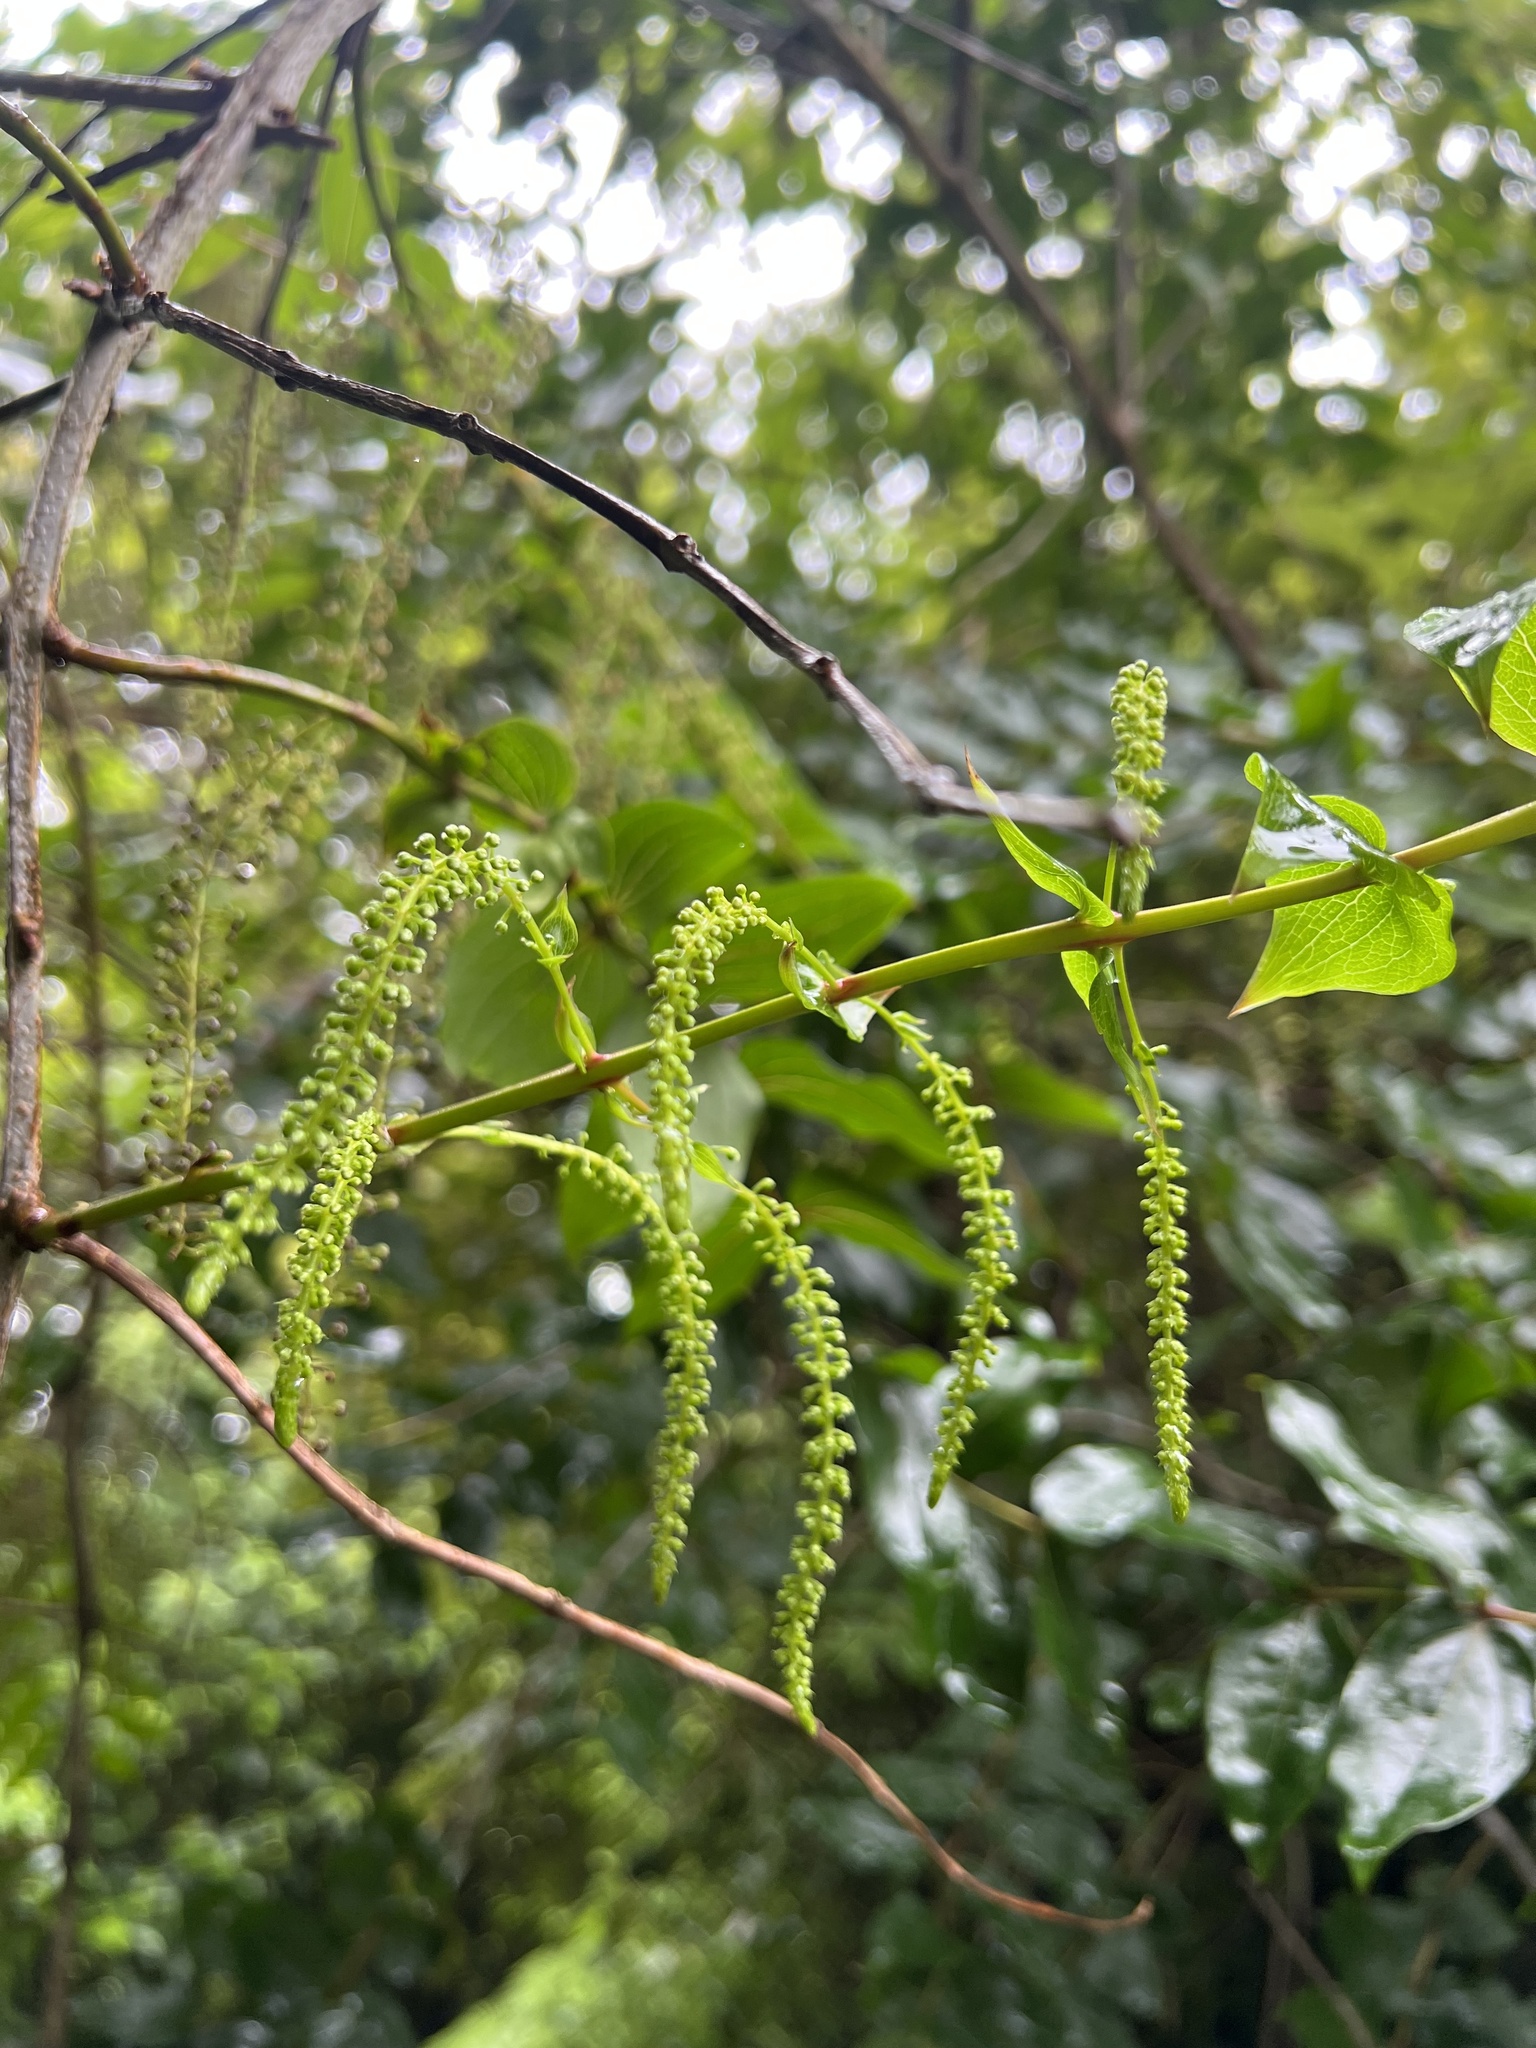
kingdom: Plantae
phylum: Tracheophyta
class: Magnoliopsida
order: Cucurbitales
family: Coriariaceae
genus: Coriaria
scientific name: Coriaria arborea
